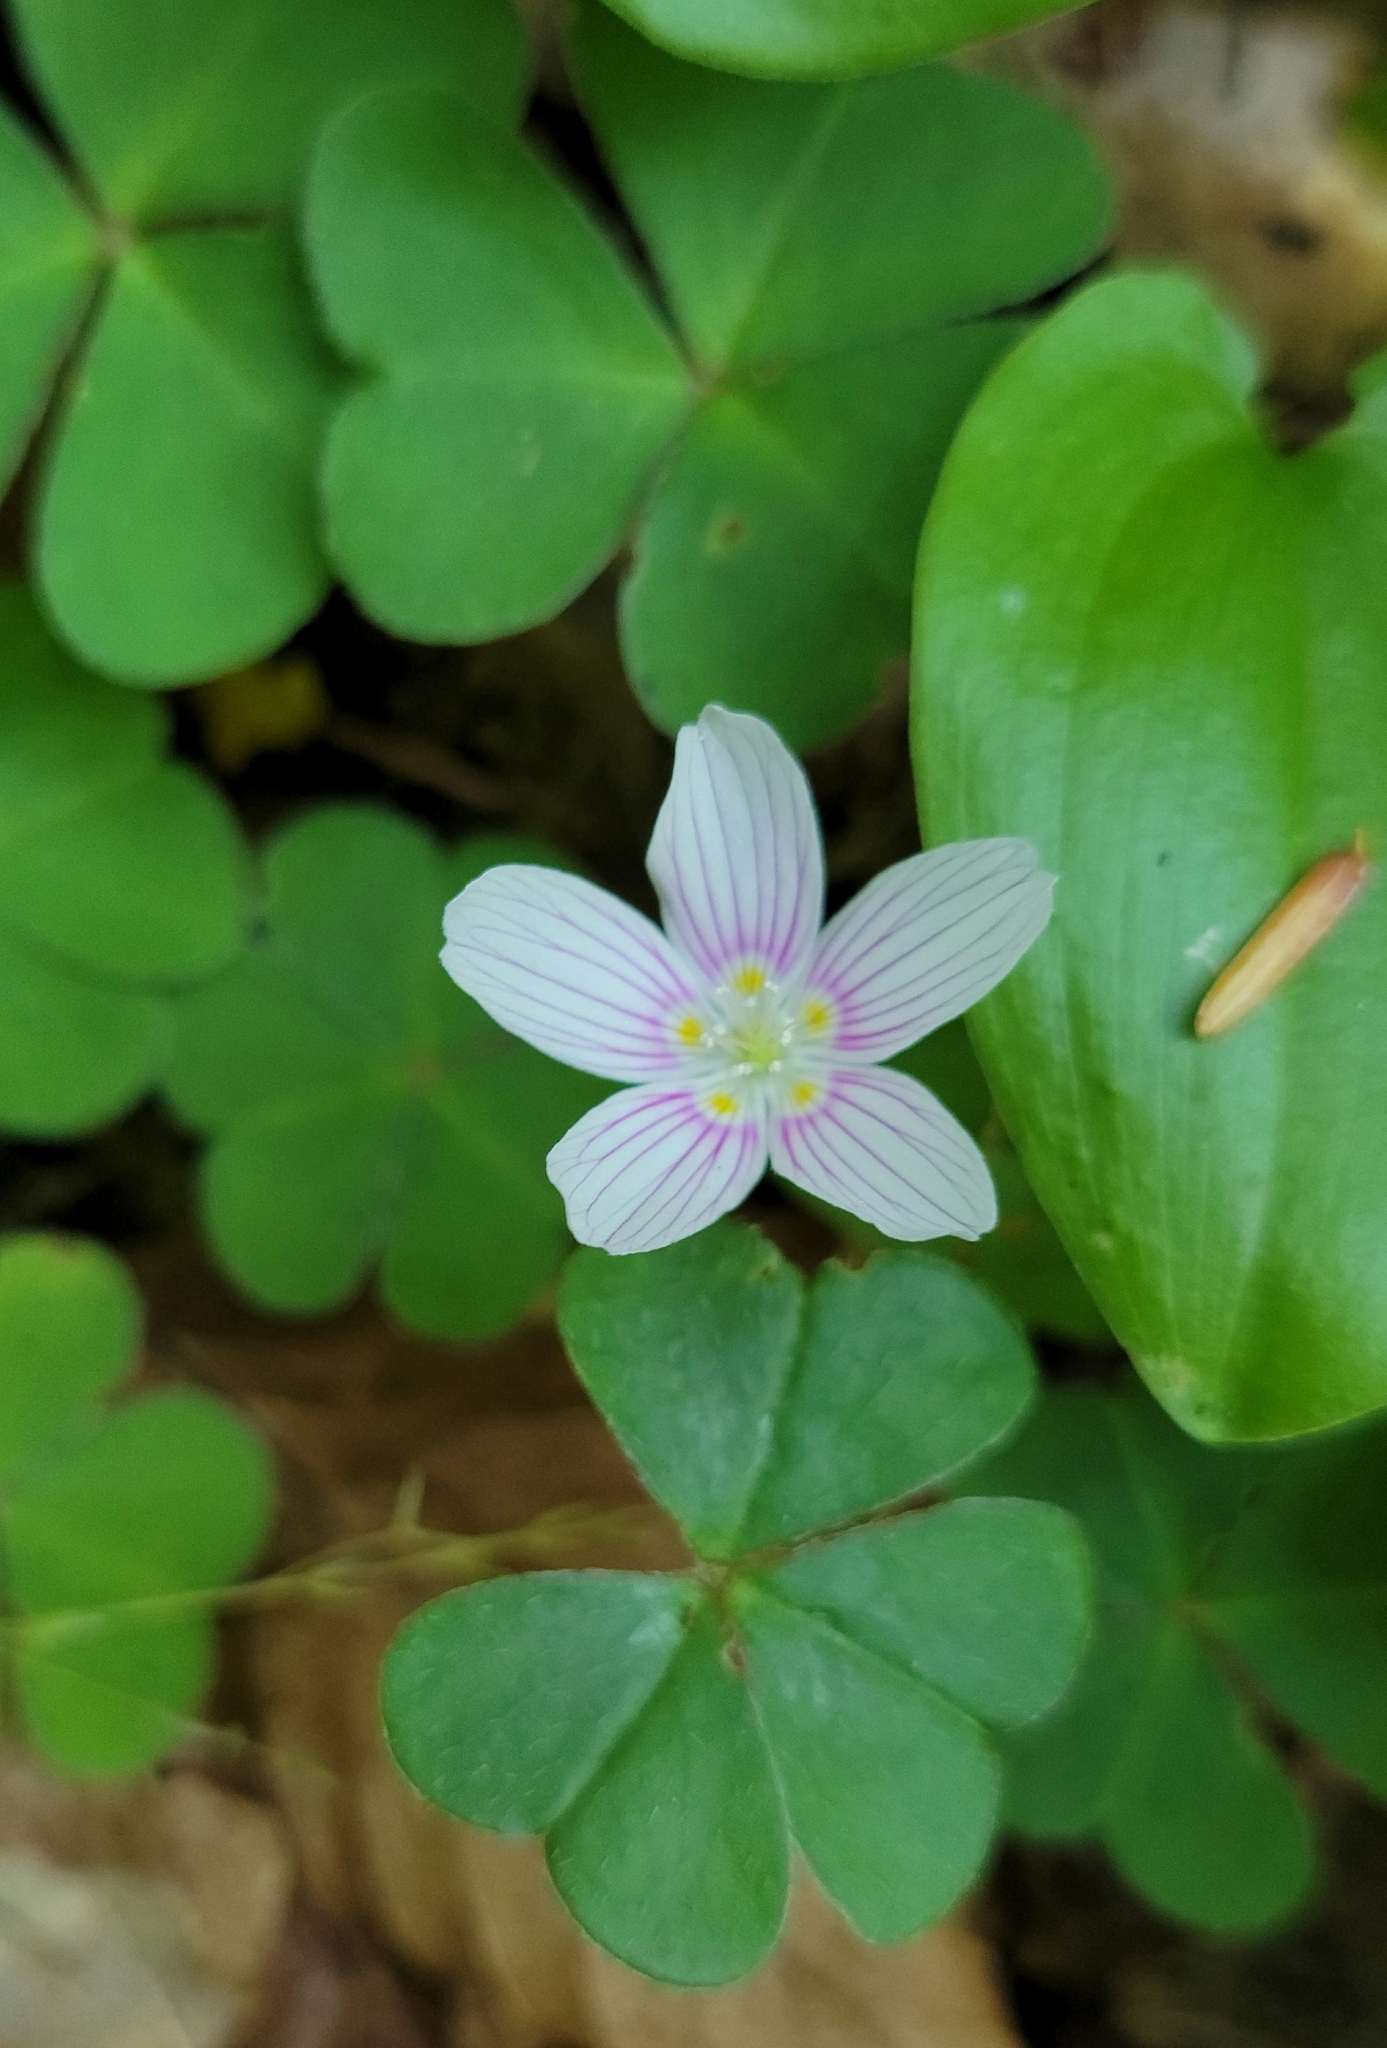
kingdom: Plantae
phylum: Tracheophyta
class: Magnoliopsida
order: Oxalidales
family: Oxalidaceae
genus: Oxalis
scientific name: Oxalis montana
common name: American wood-sorrel
